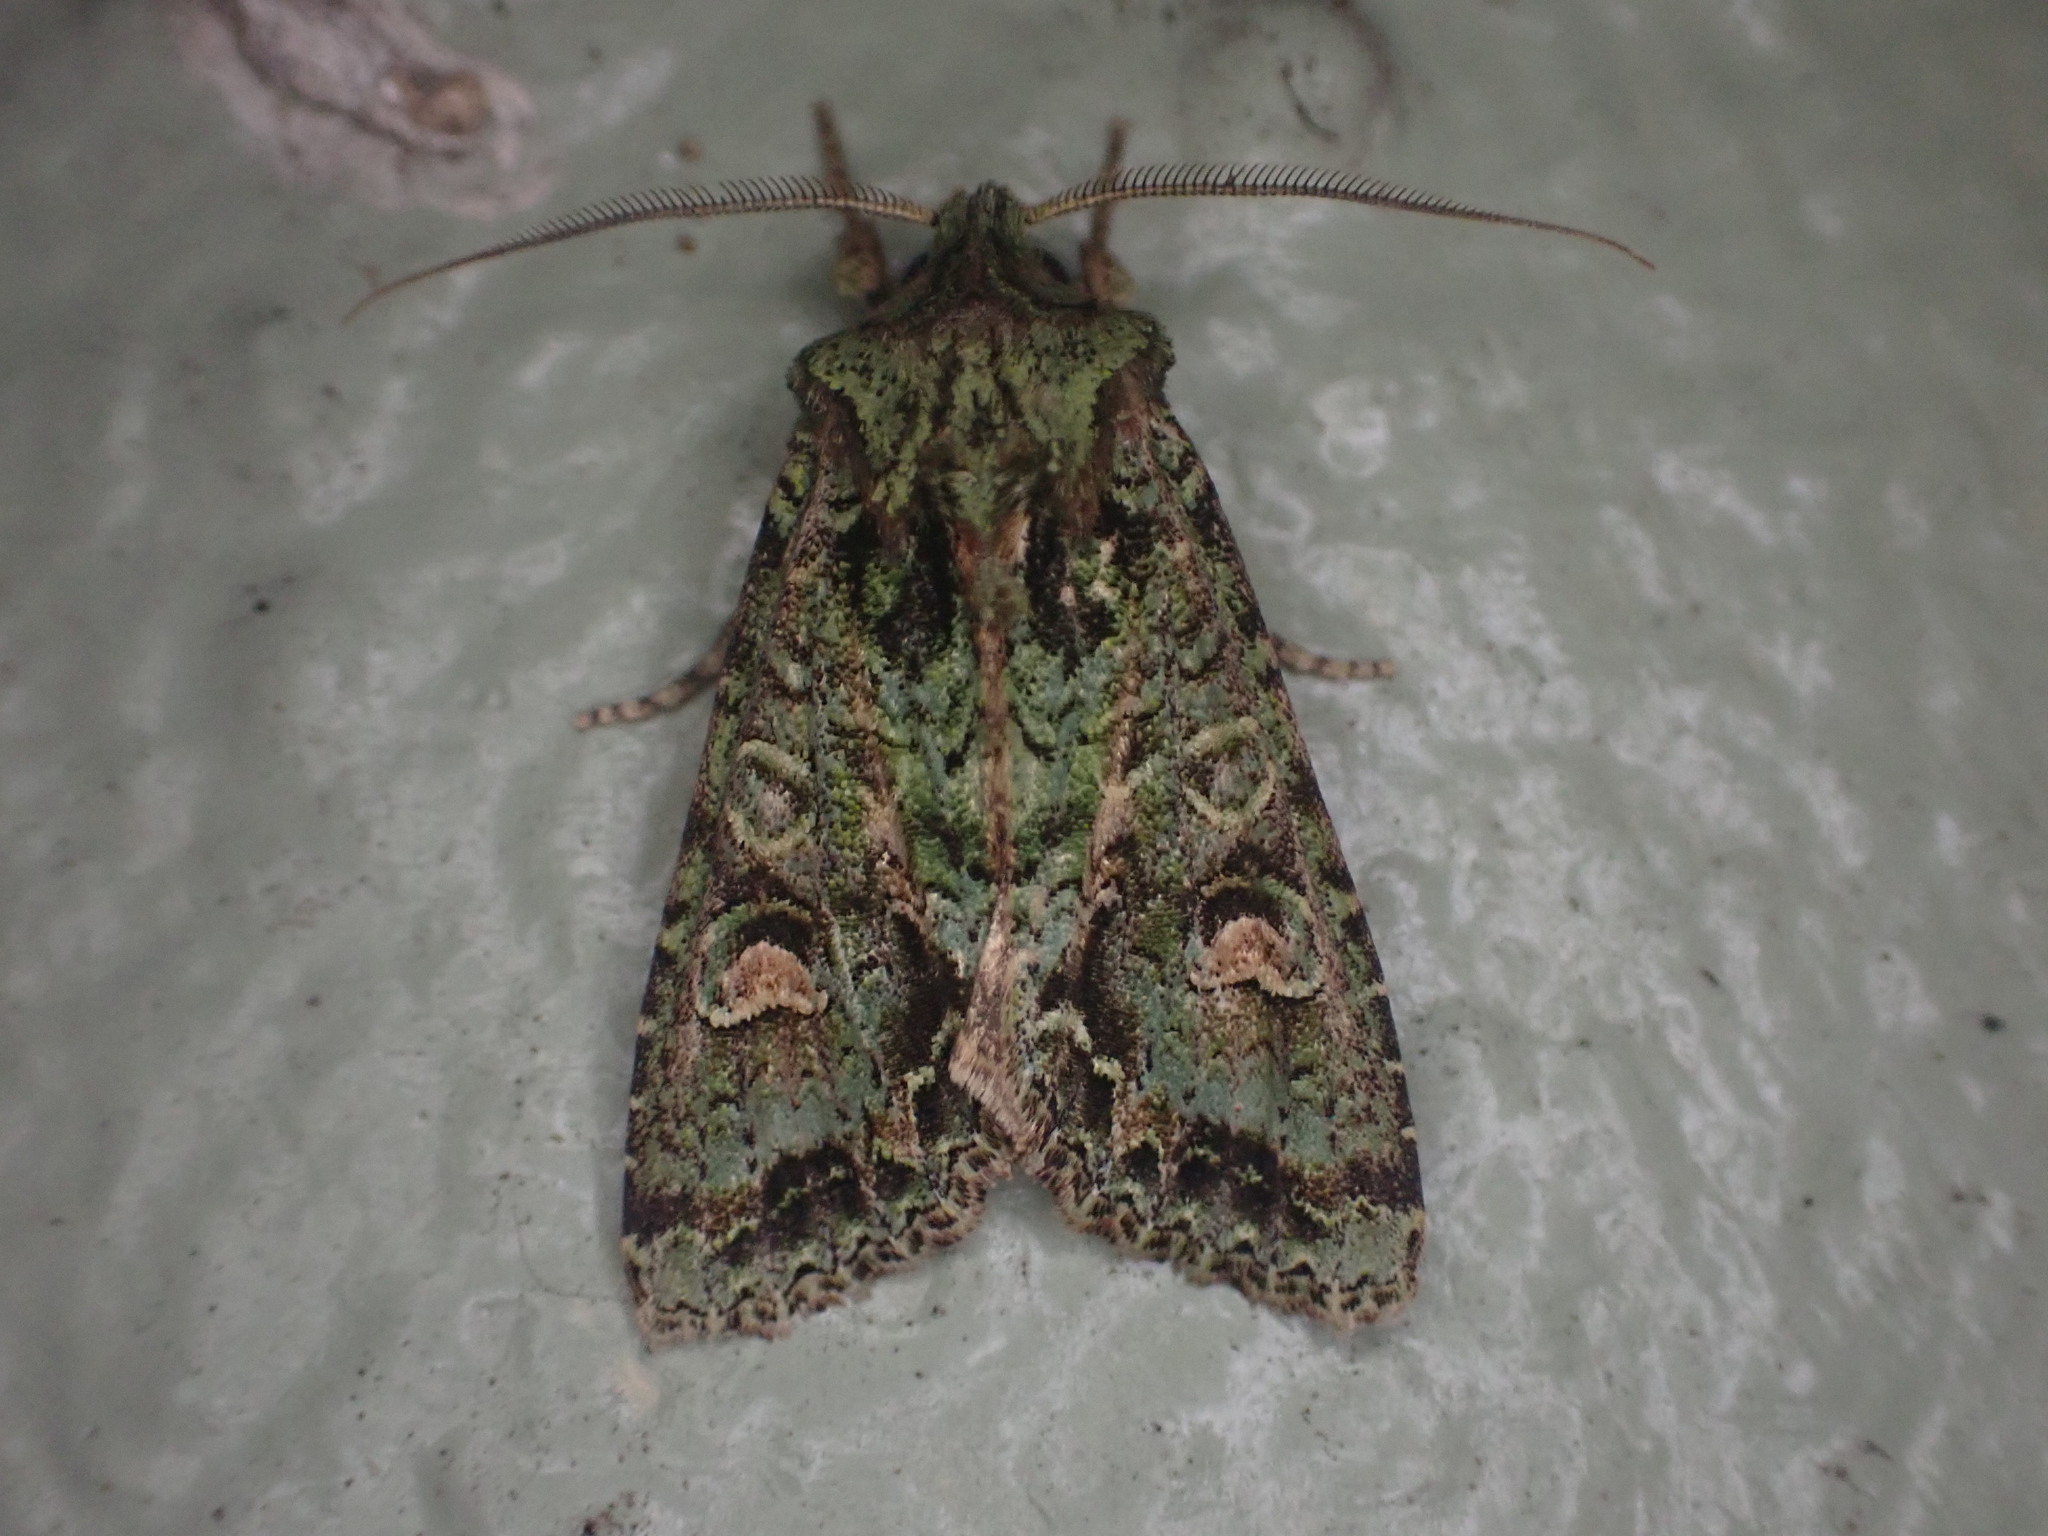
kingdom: Animalia
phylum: Arthropoda
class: Insecta
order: Lepidoptera
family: Noctuidae
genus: Ichneutica
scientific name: Ichneutica
